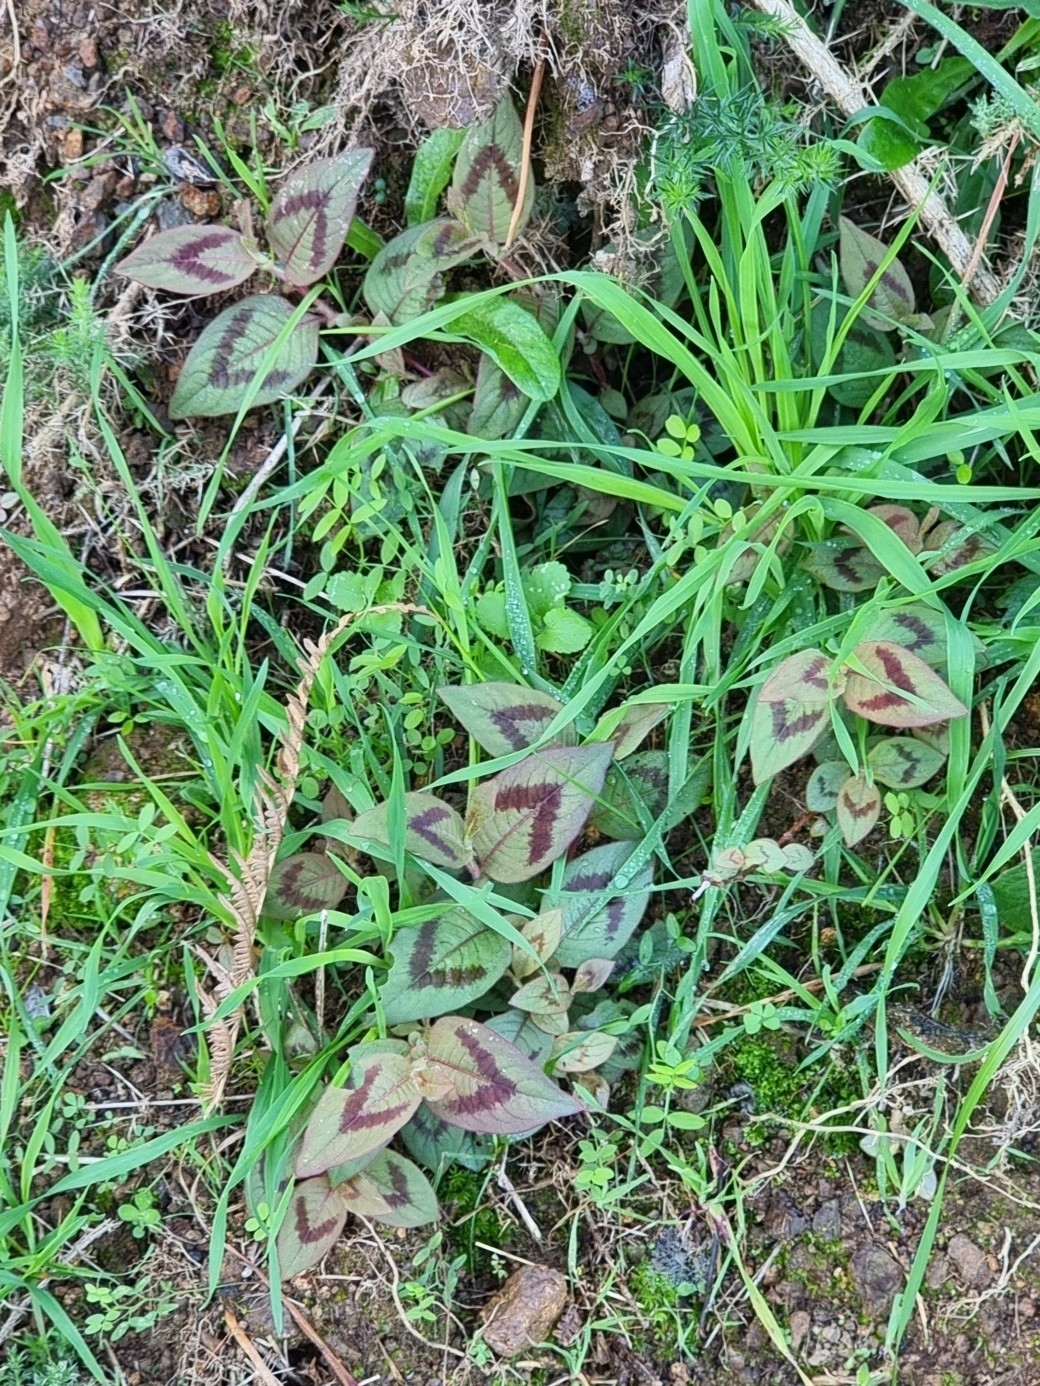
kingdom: Plantae
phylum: Tracheophyta
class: Magnoliopsida
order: Caryophyllales
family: Polygonaceae
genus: Persicaria
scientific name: Persicaria capitata
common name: Pinkhead smartweed
